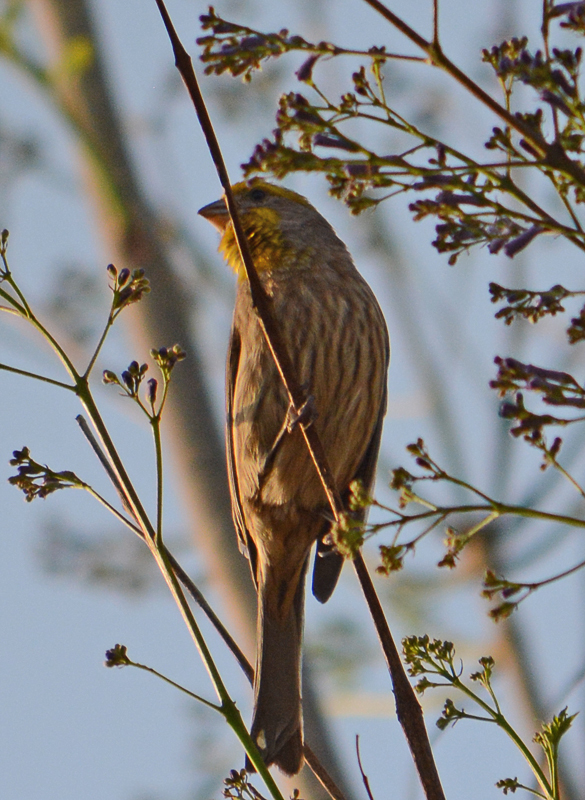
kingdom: Animalia
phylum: Chordata
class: Aves
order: Passeriformes
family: Fringillidae
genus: Haemorhous
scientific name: Haemorhous mexicanus
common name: House finch
